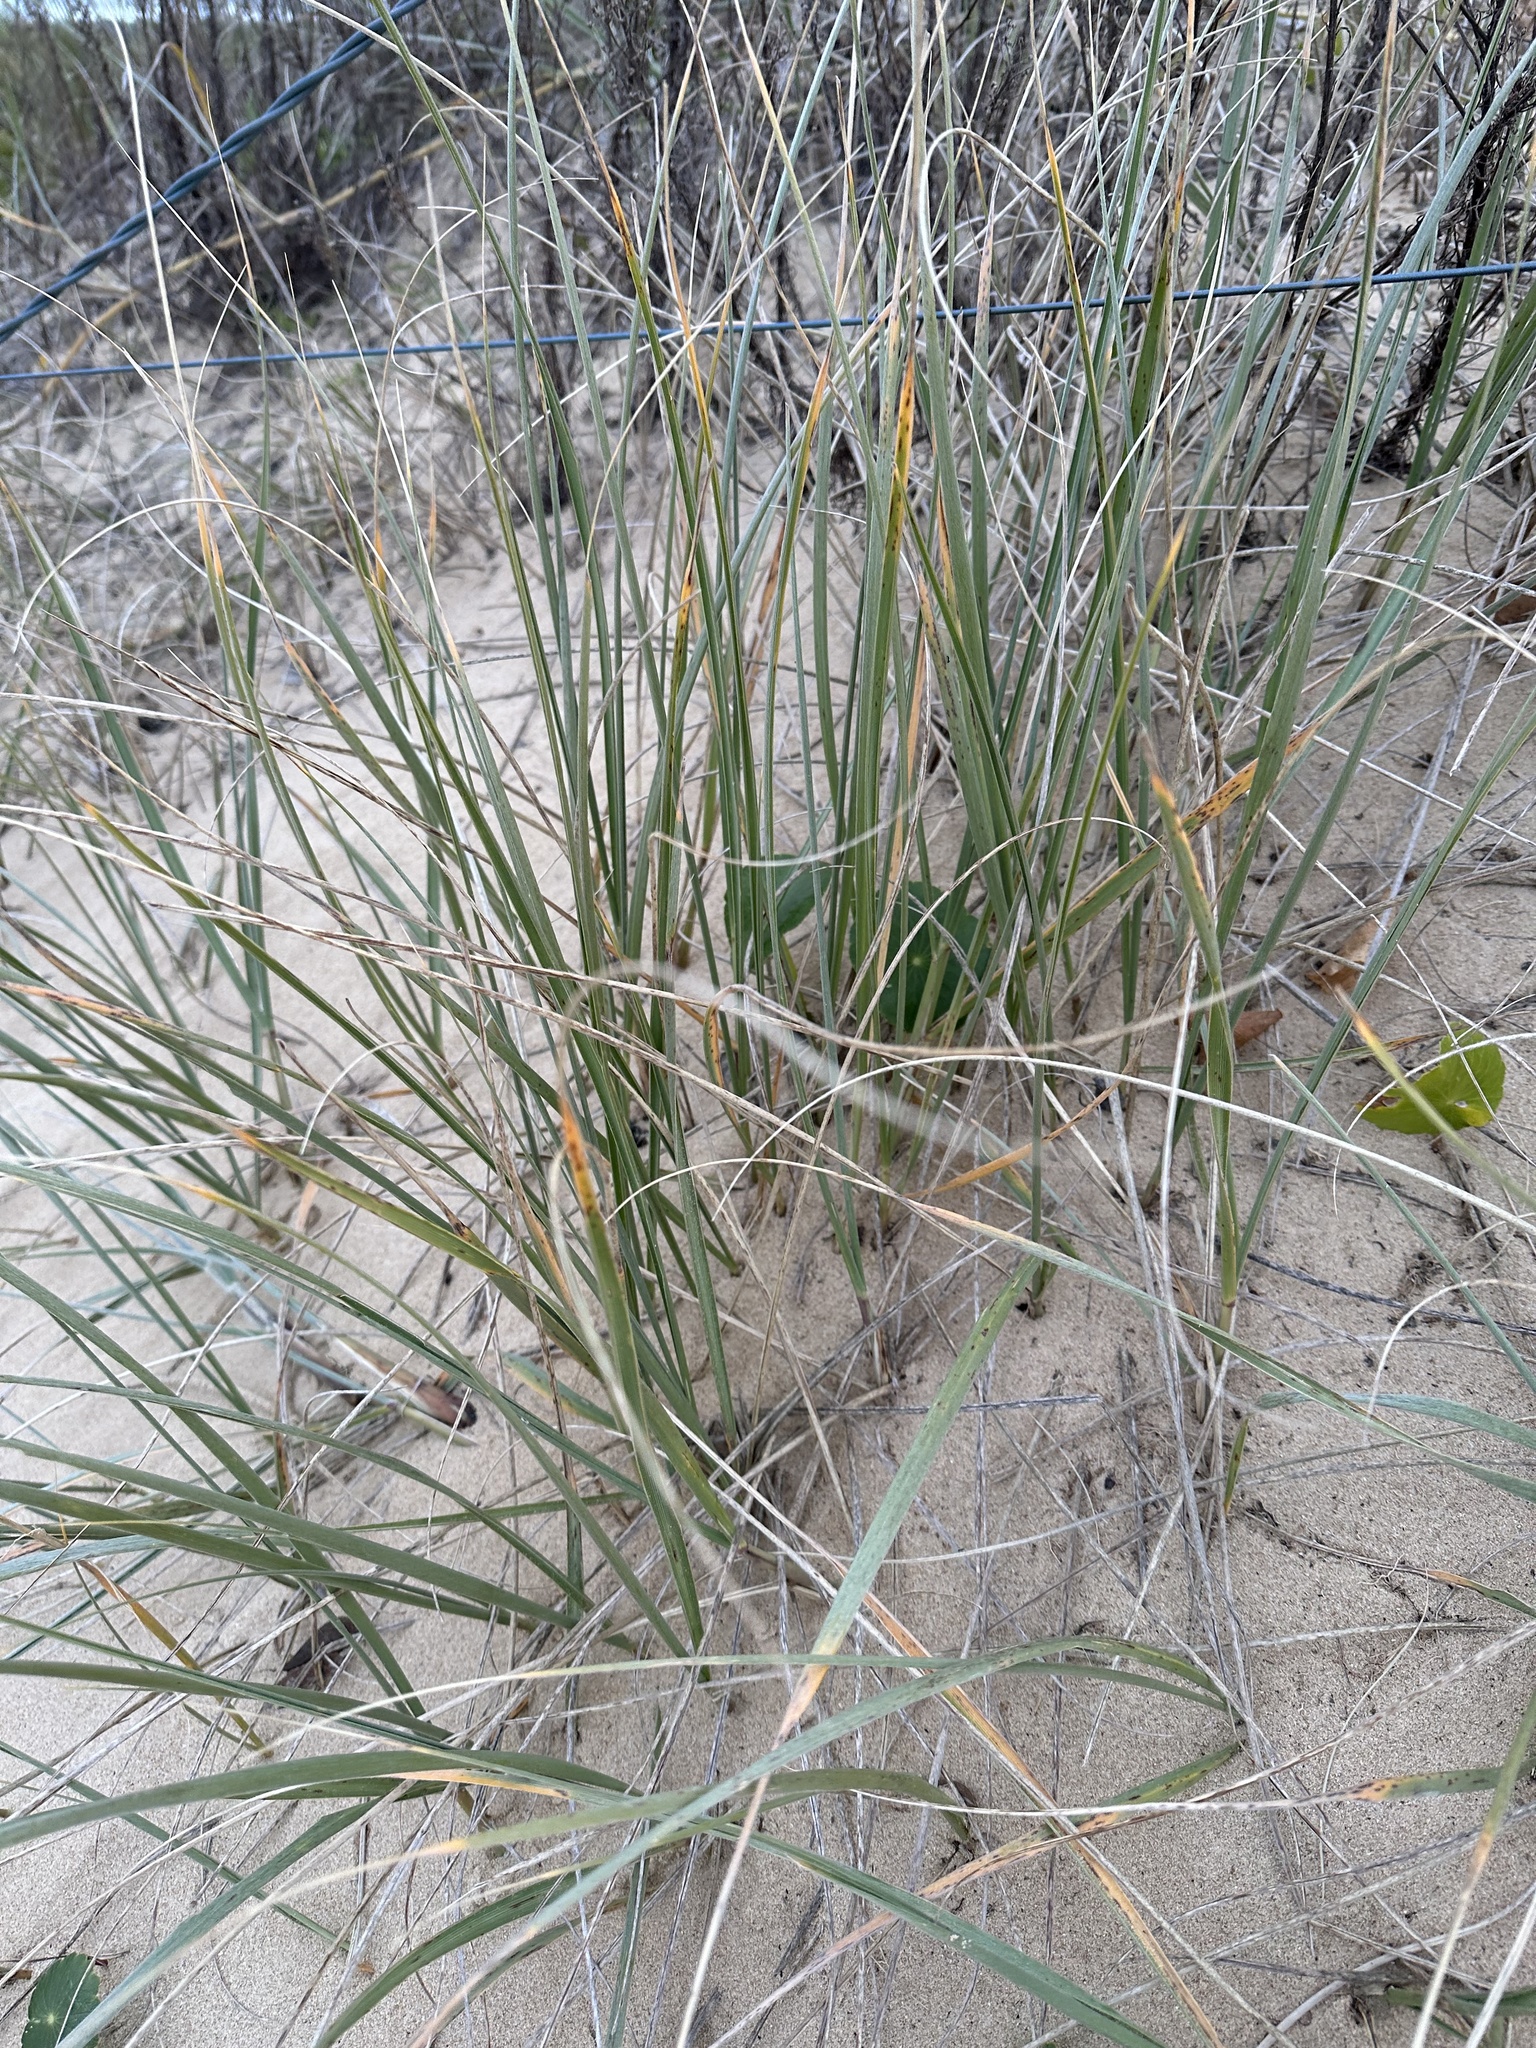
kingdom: Plantae
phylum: Tracheophyta
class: Liliopsida
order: Poales
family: Poaceae
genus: Spinifex
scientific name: Spinifex sericeus
